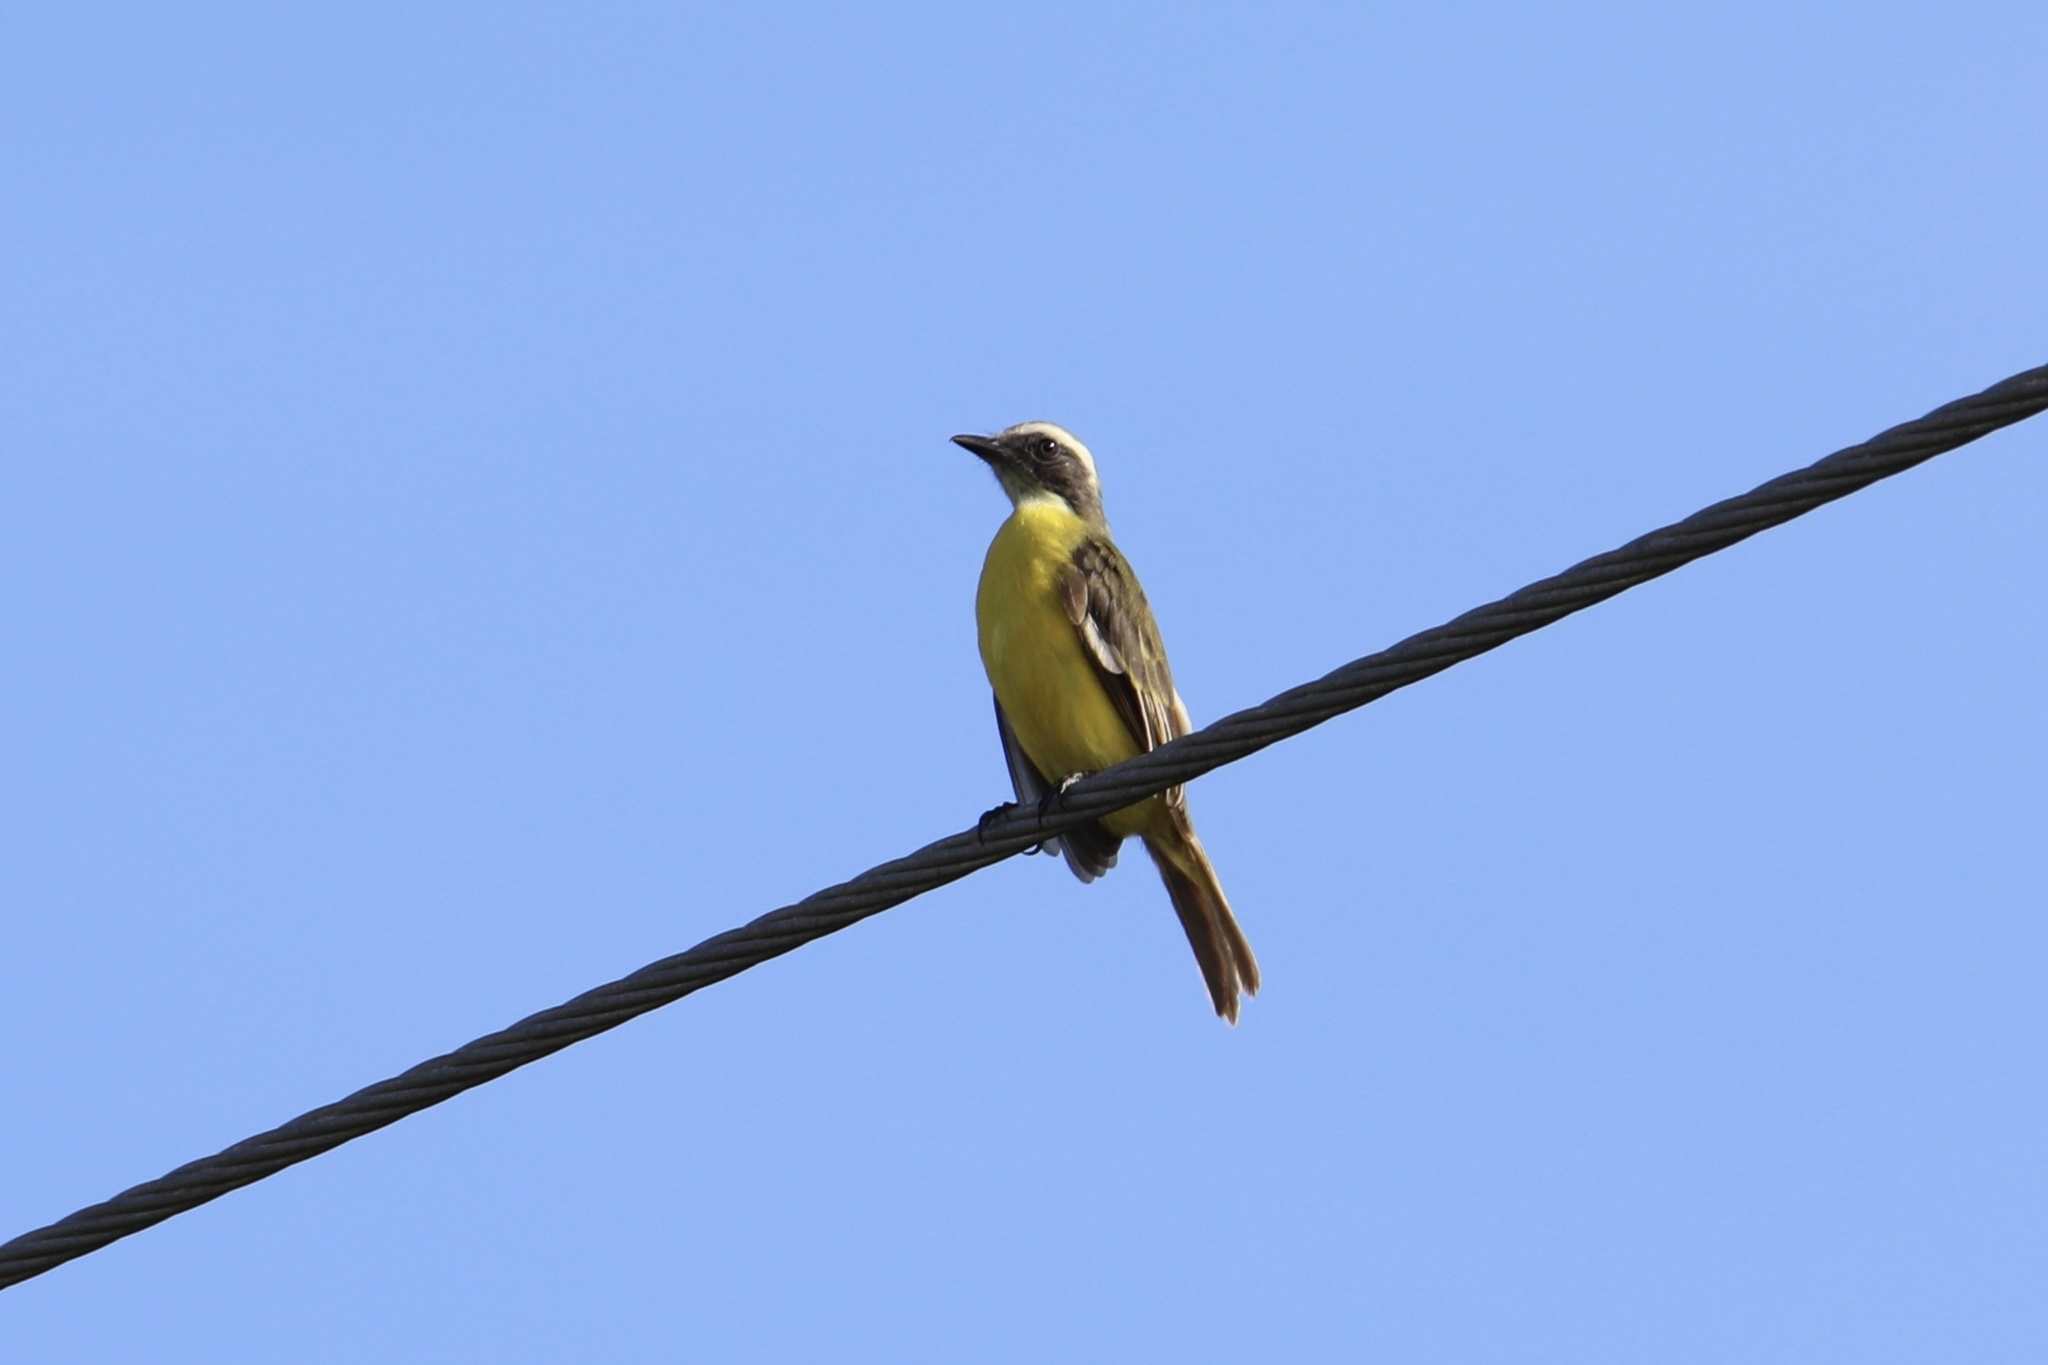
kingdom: Animalia
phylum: Chordata
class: Aves
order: Passeriformes
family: Tyrannidae
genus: Myiozetetes
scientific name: Myiozetetes similis
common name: Social flycatcher
